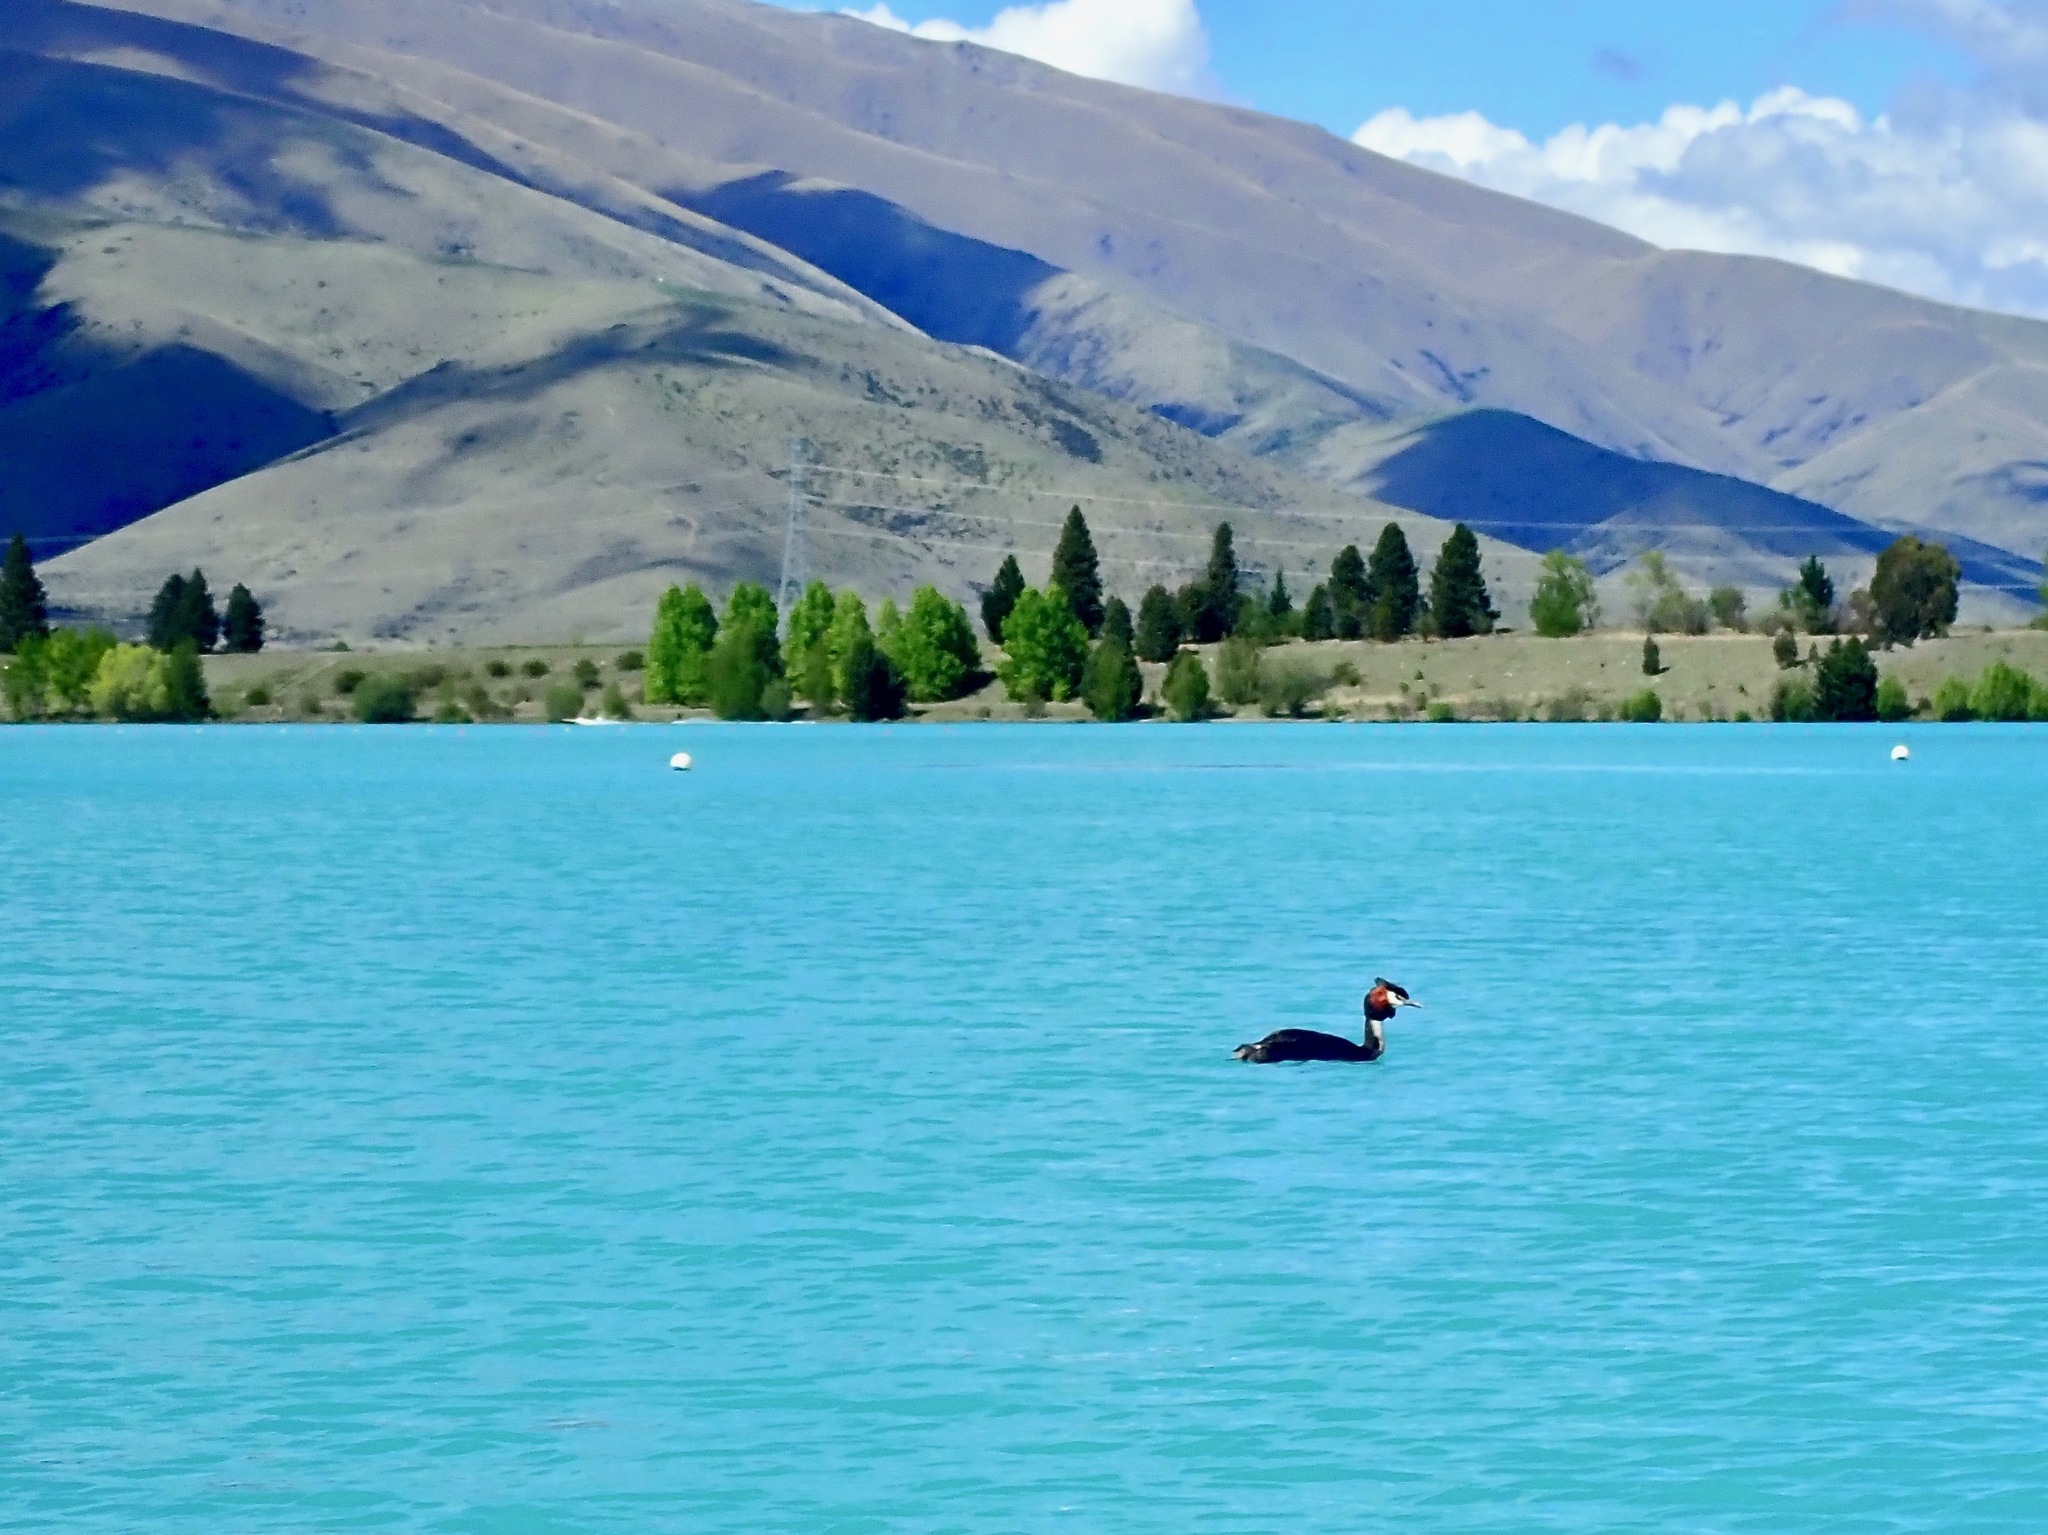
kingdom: Animalia
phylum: Chordata
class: Aves
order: Podicipediformes
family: Podicipedidae
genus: Podiceps
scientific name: Podiceps cristatus
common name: Great crested grebe
